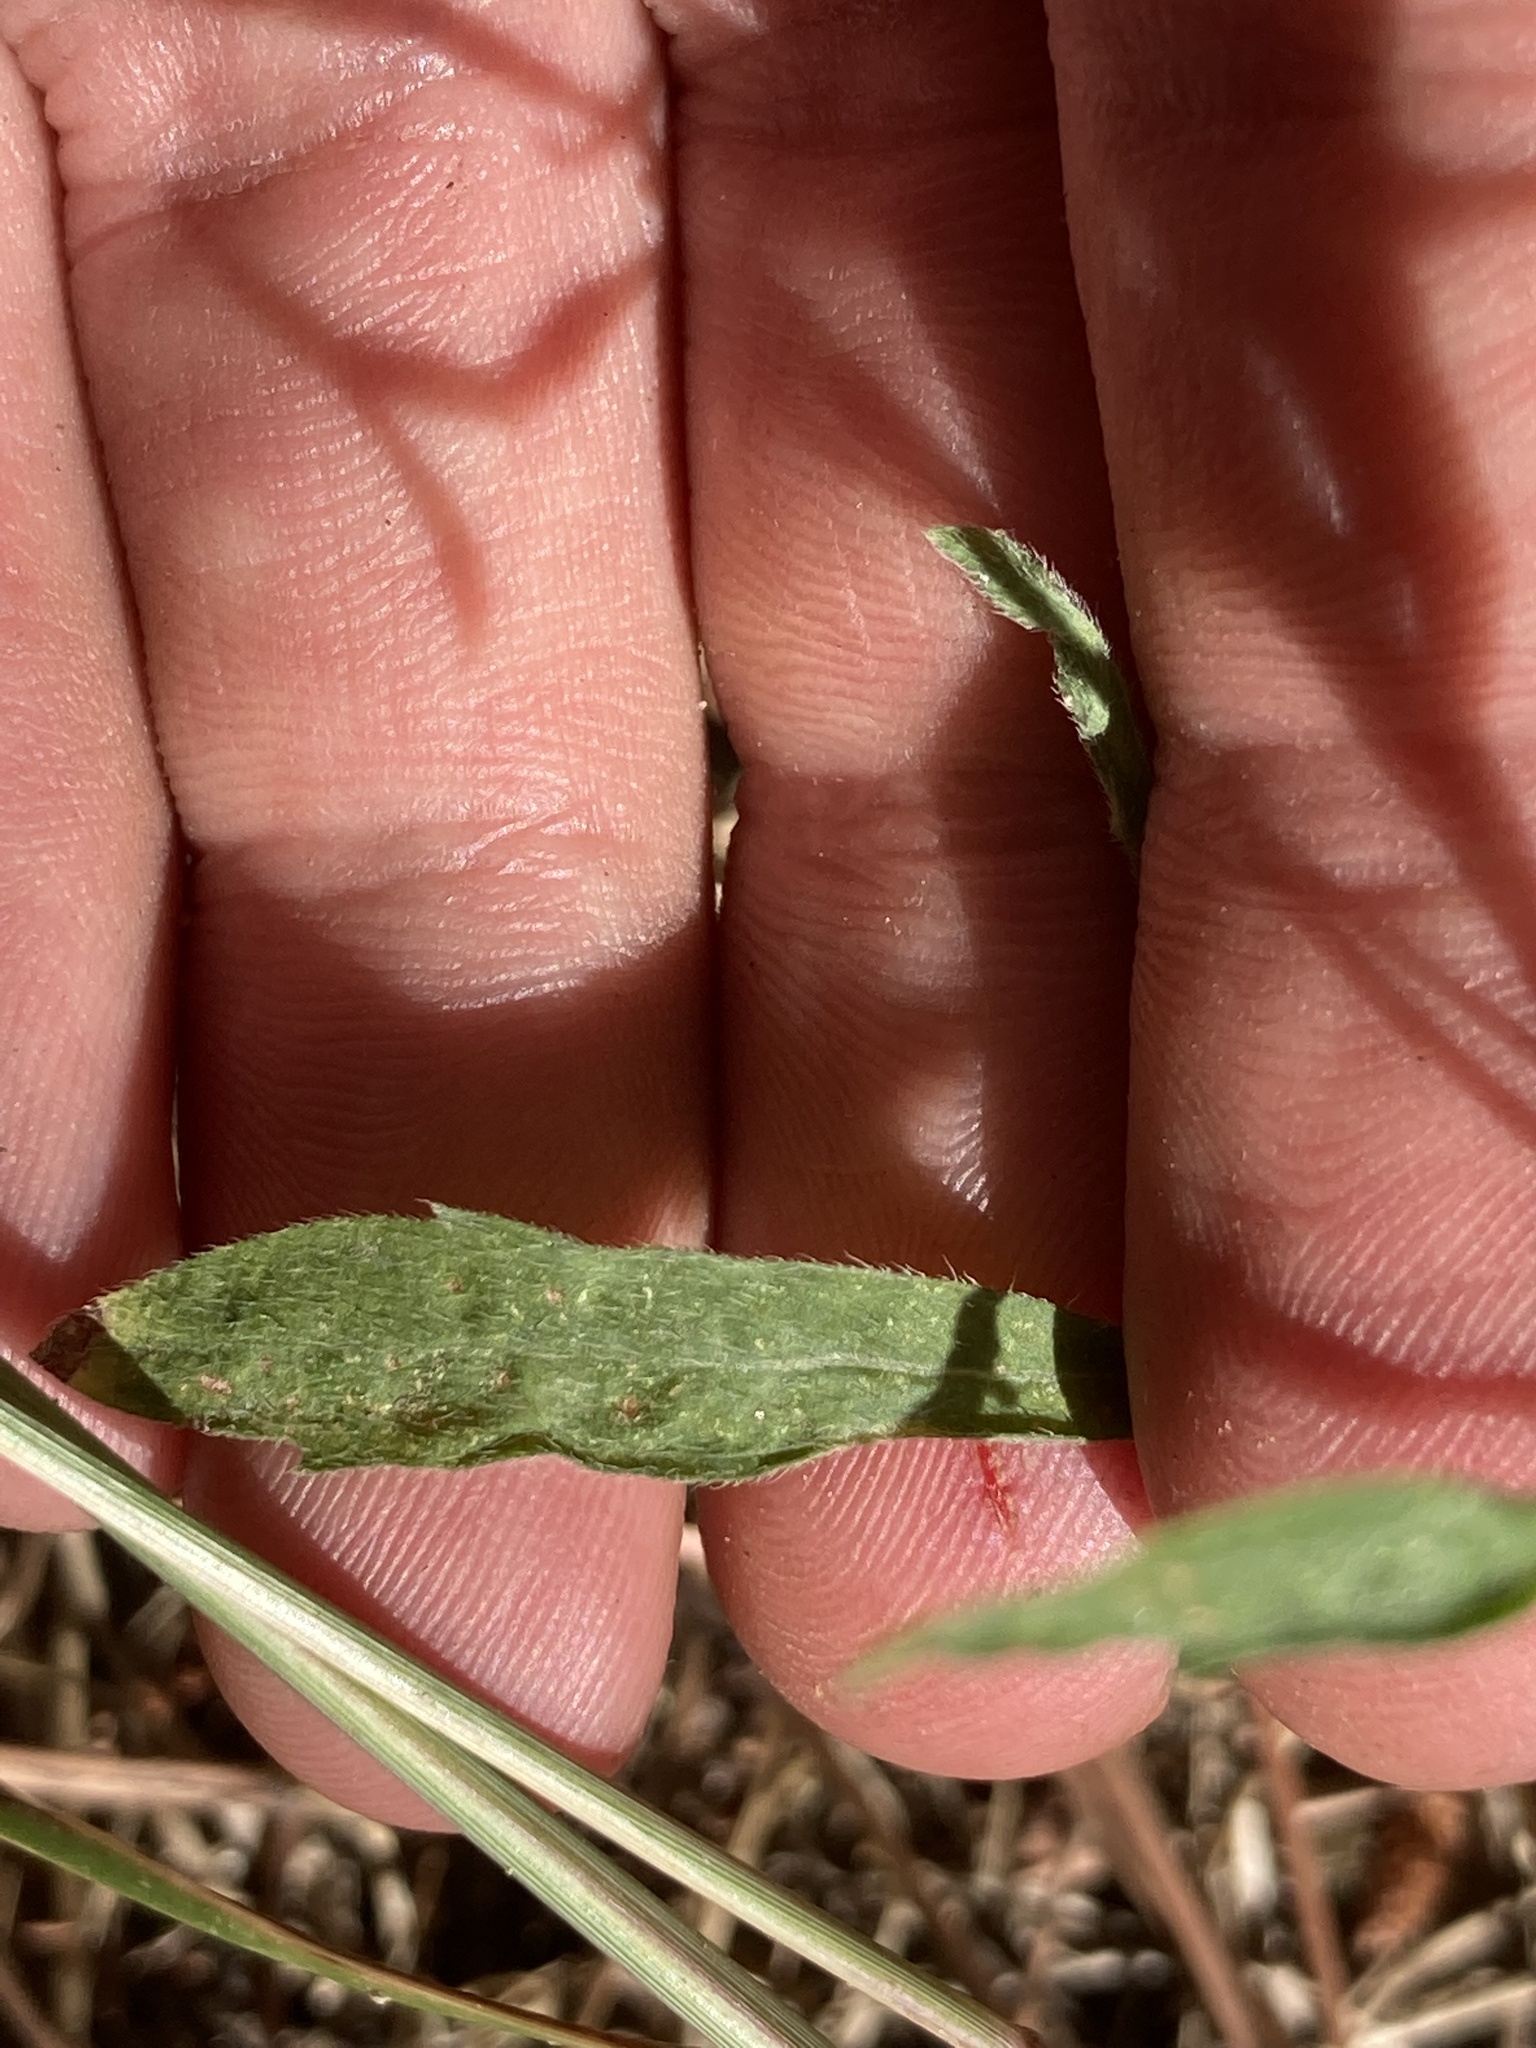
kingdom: Plantae
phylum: Tracheophyta
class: Magnoliopsida
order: Asterales
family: Asteraceae
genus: Erigeron
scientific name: Erigeron canadensis
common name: Canadian fleabane
